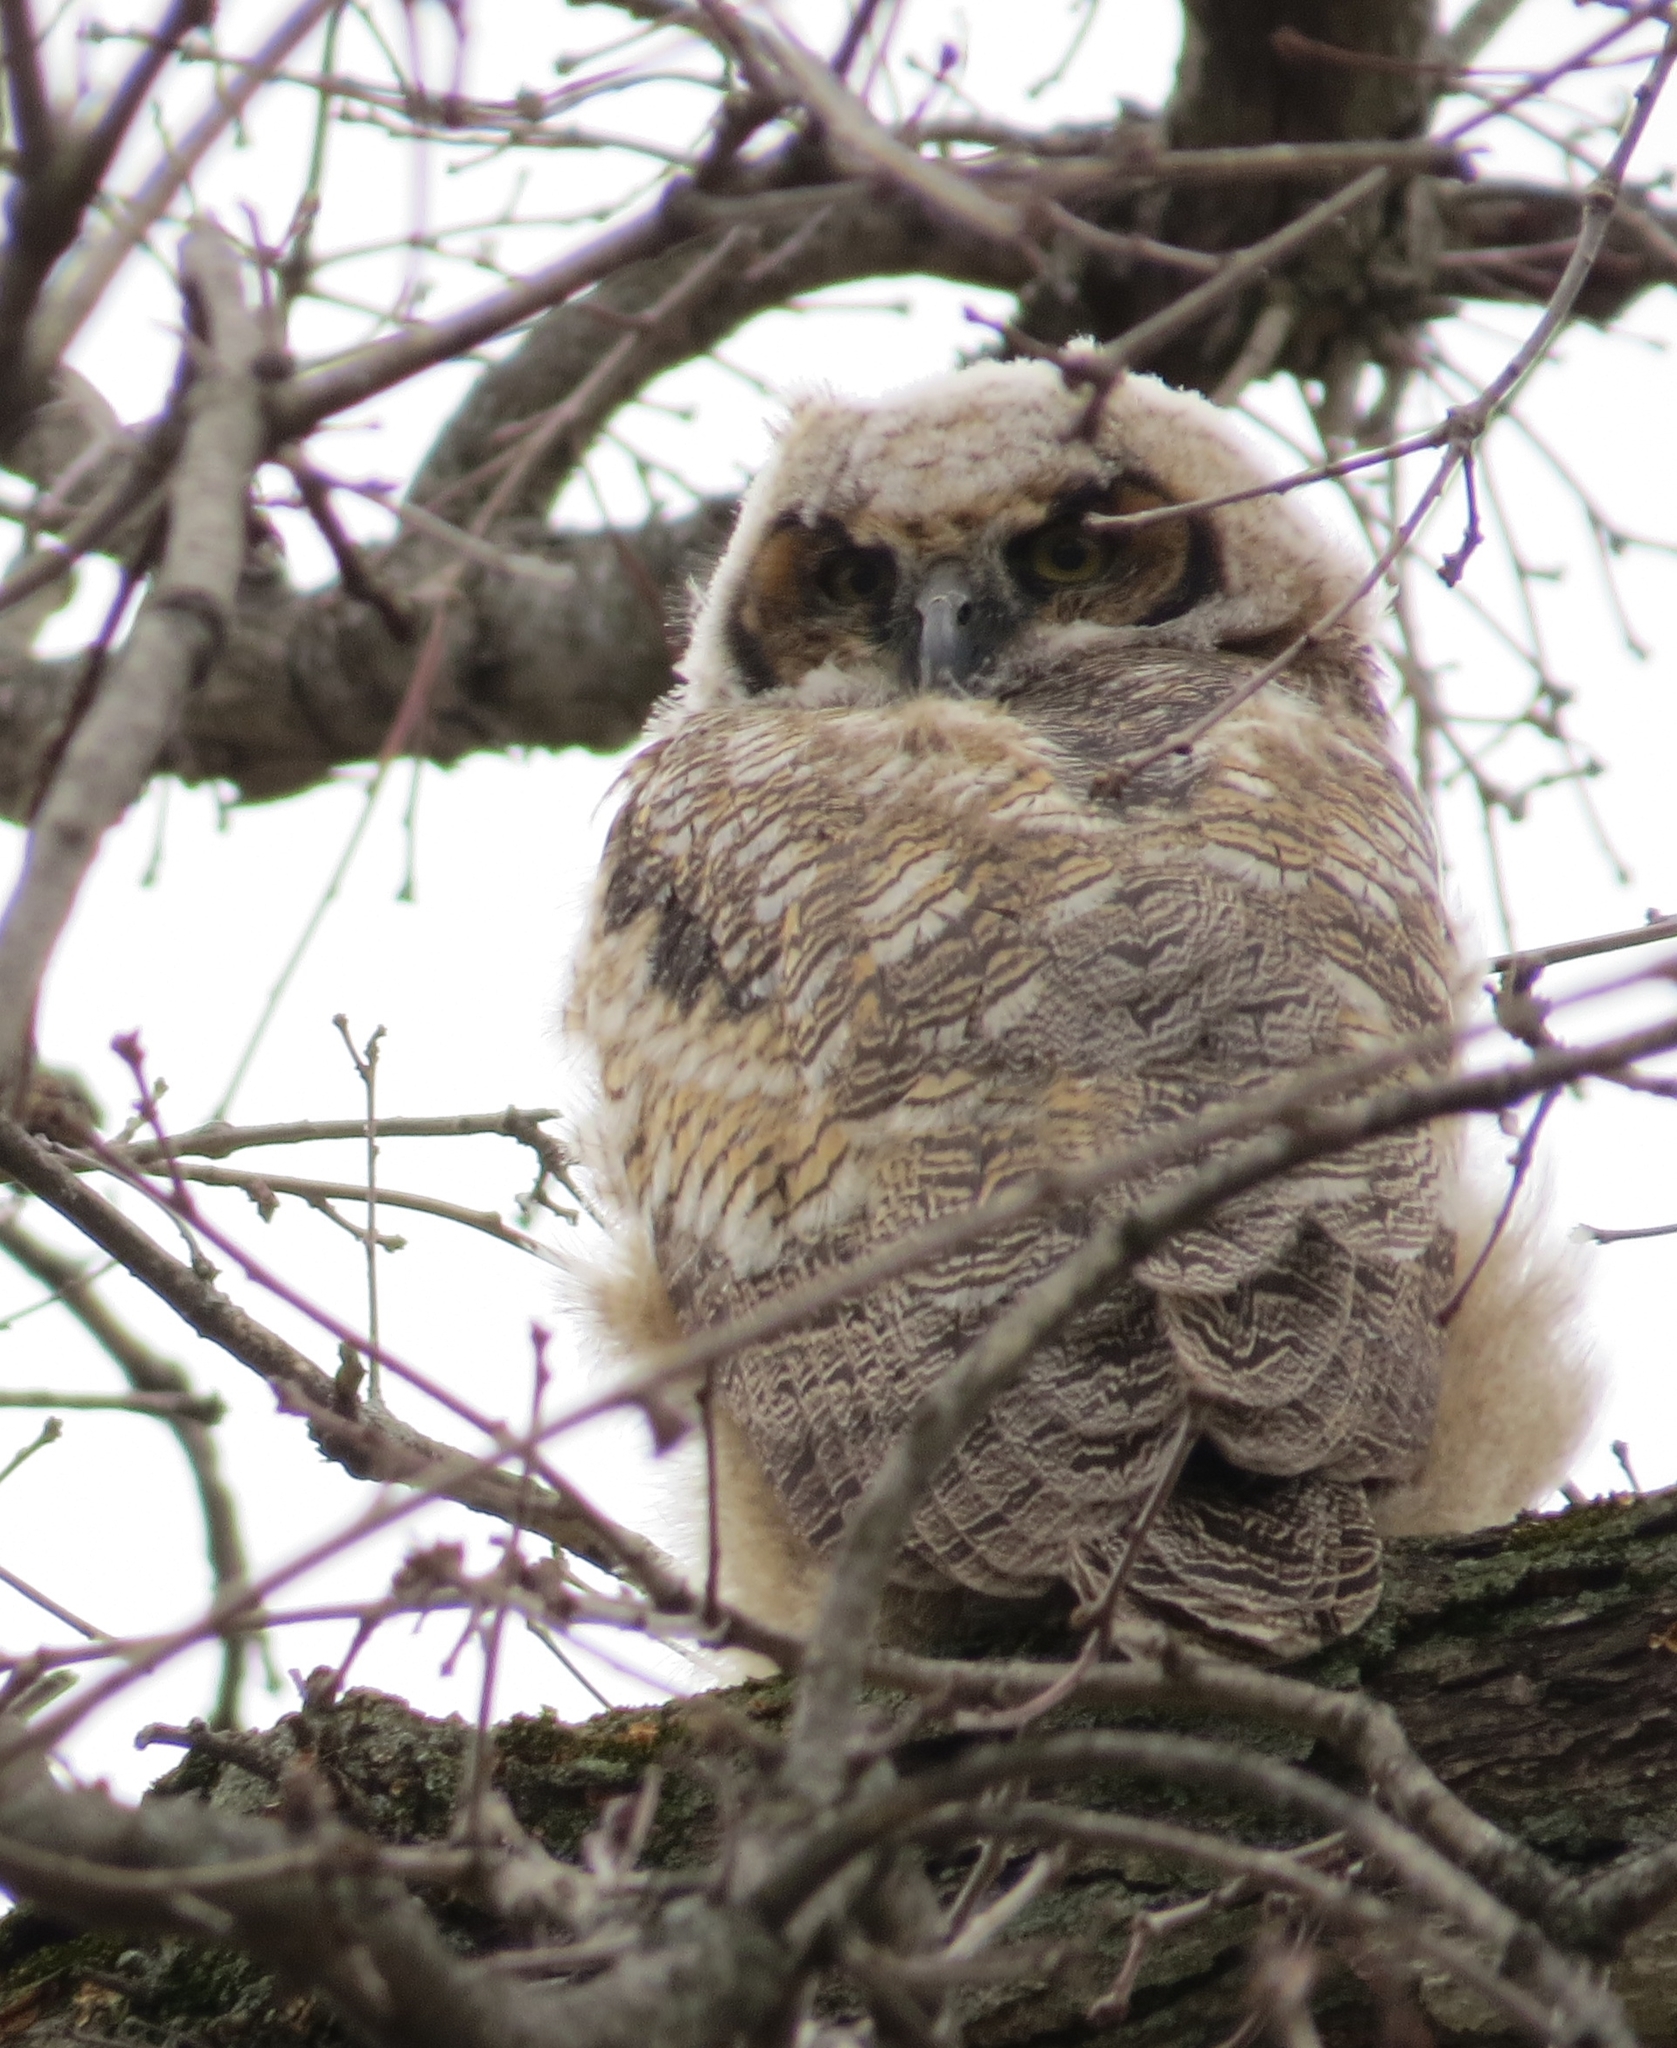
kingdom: Animalia
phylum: Chordata
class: Aves
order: Strigiformes
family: Strigidae
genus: Bubo
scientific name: Bubo virginianus
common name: Great horned owl
